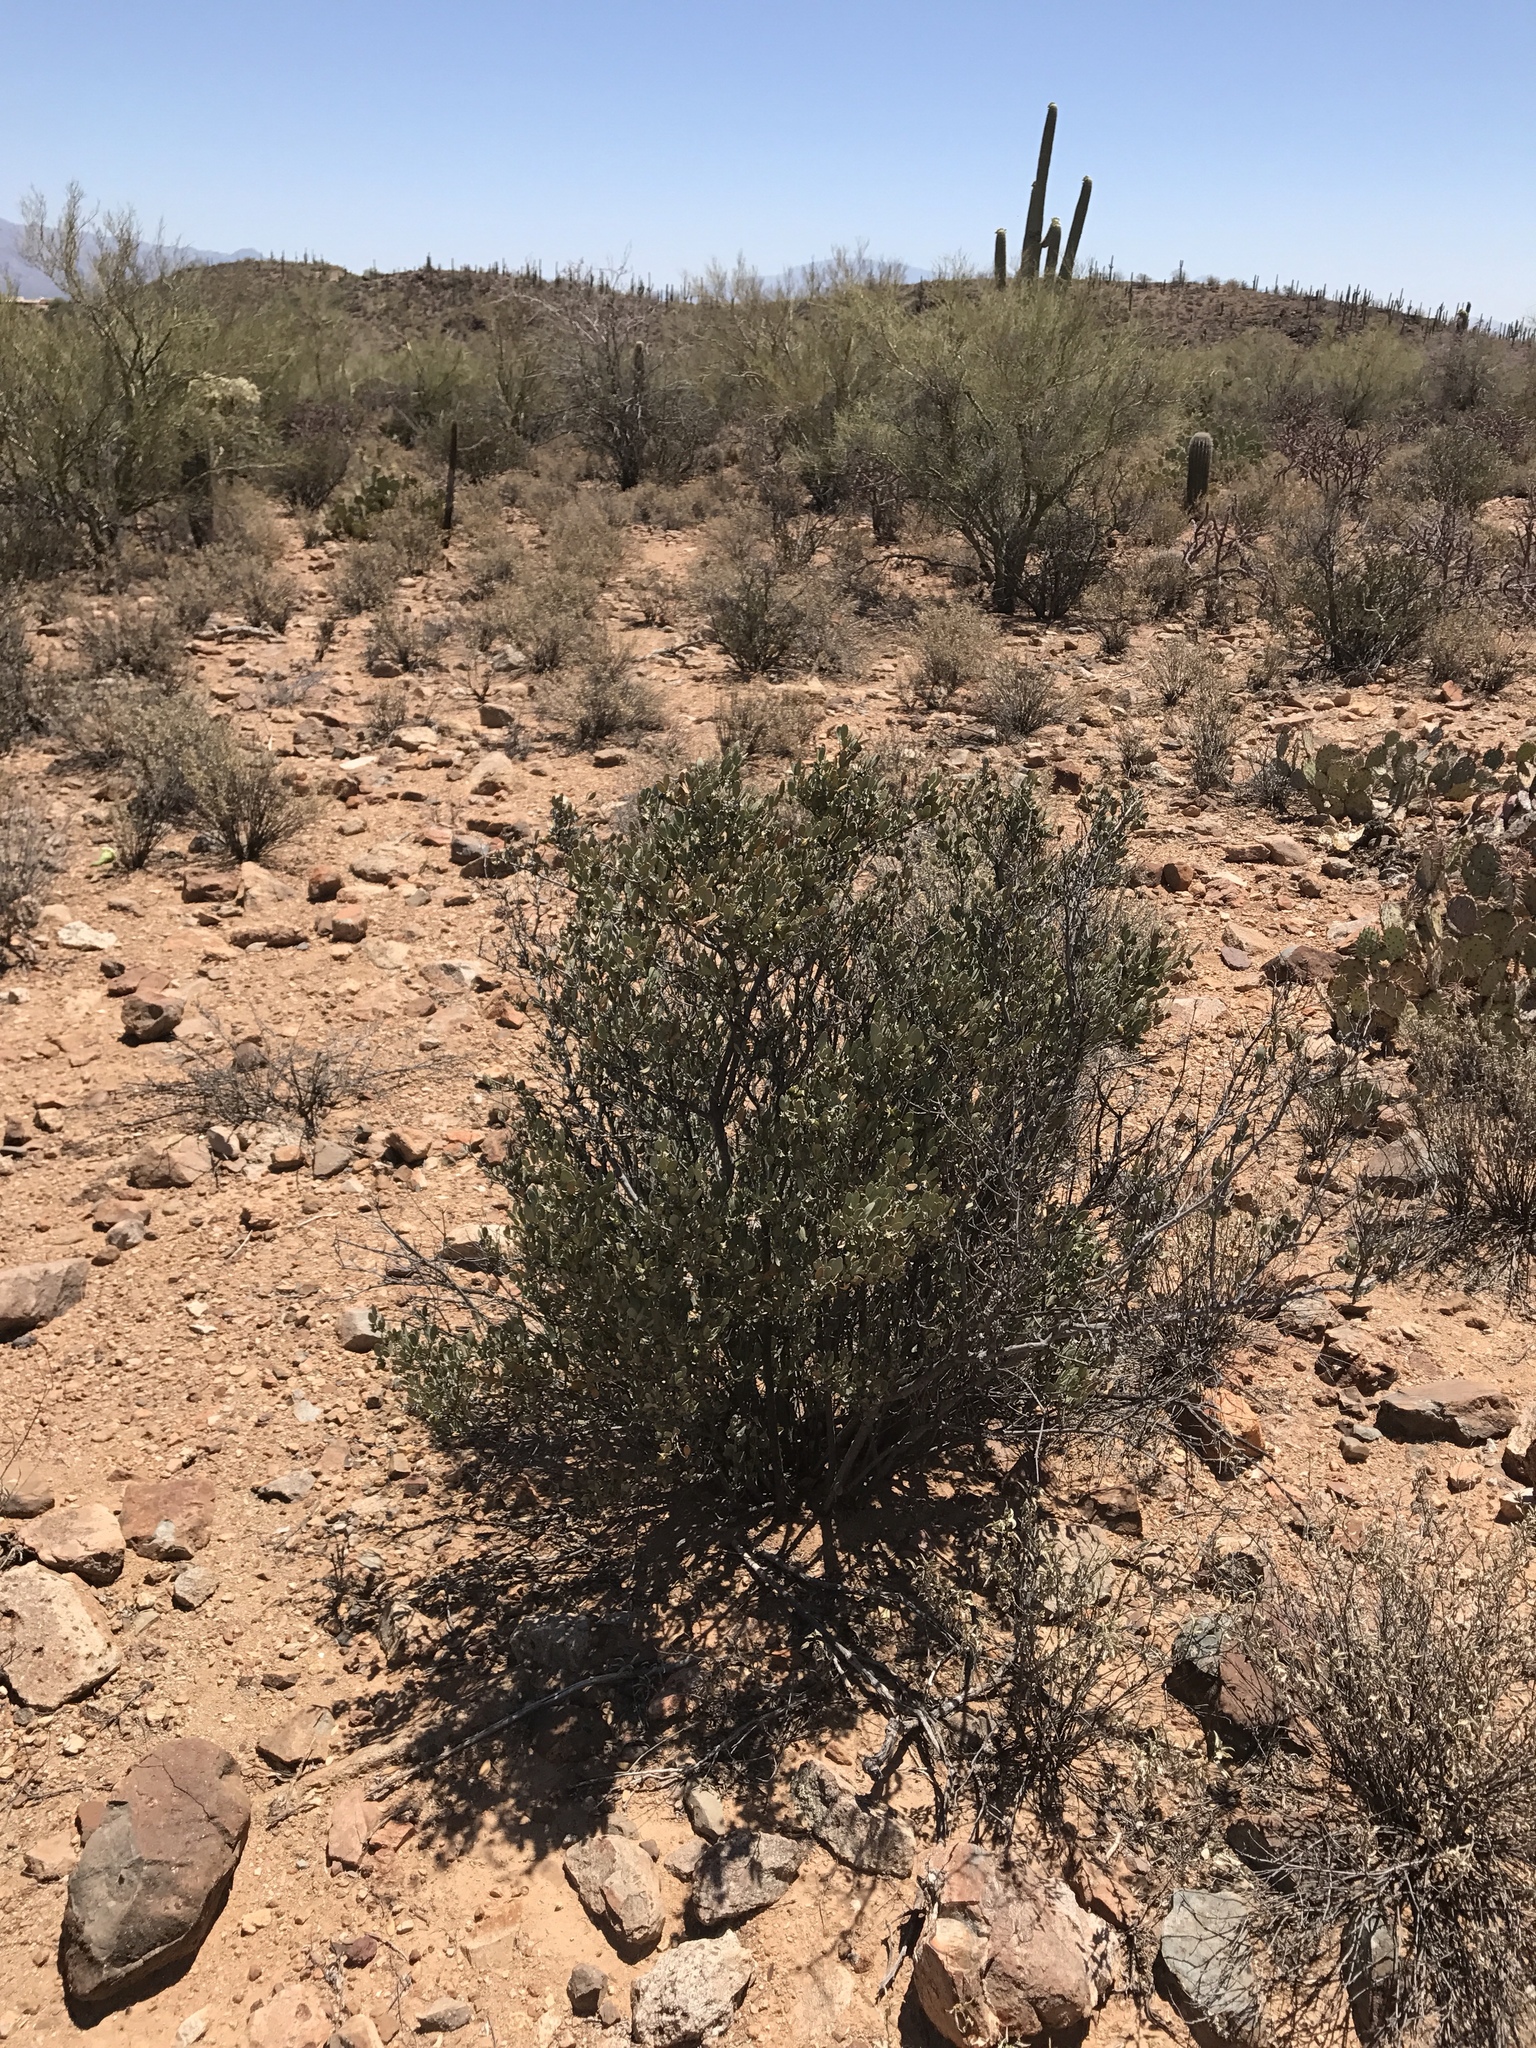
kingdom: Plantae
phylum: Tracheophyta
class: Magnoliopsida
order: Caryophyllales
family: Simmondsiaceae
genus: Simmondsia
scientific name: Simmondsia chinensis
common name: Jojoba
